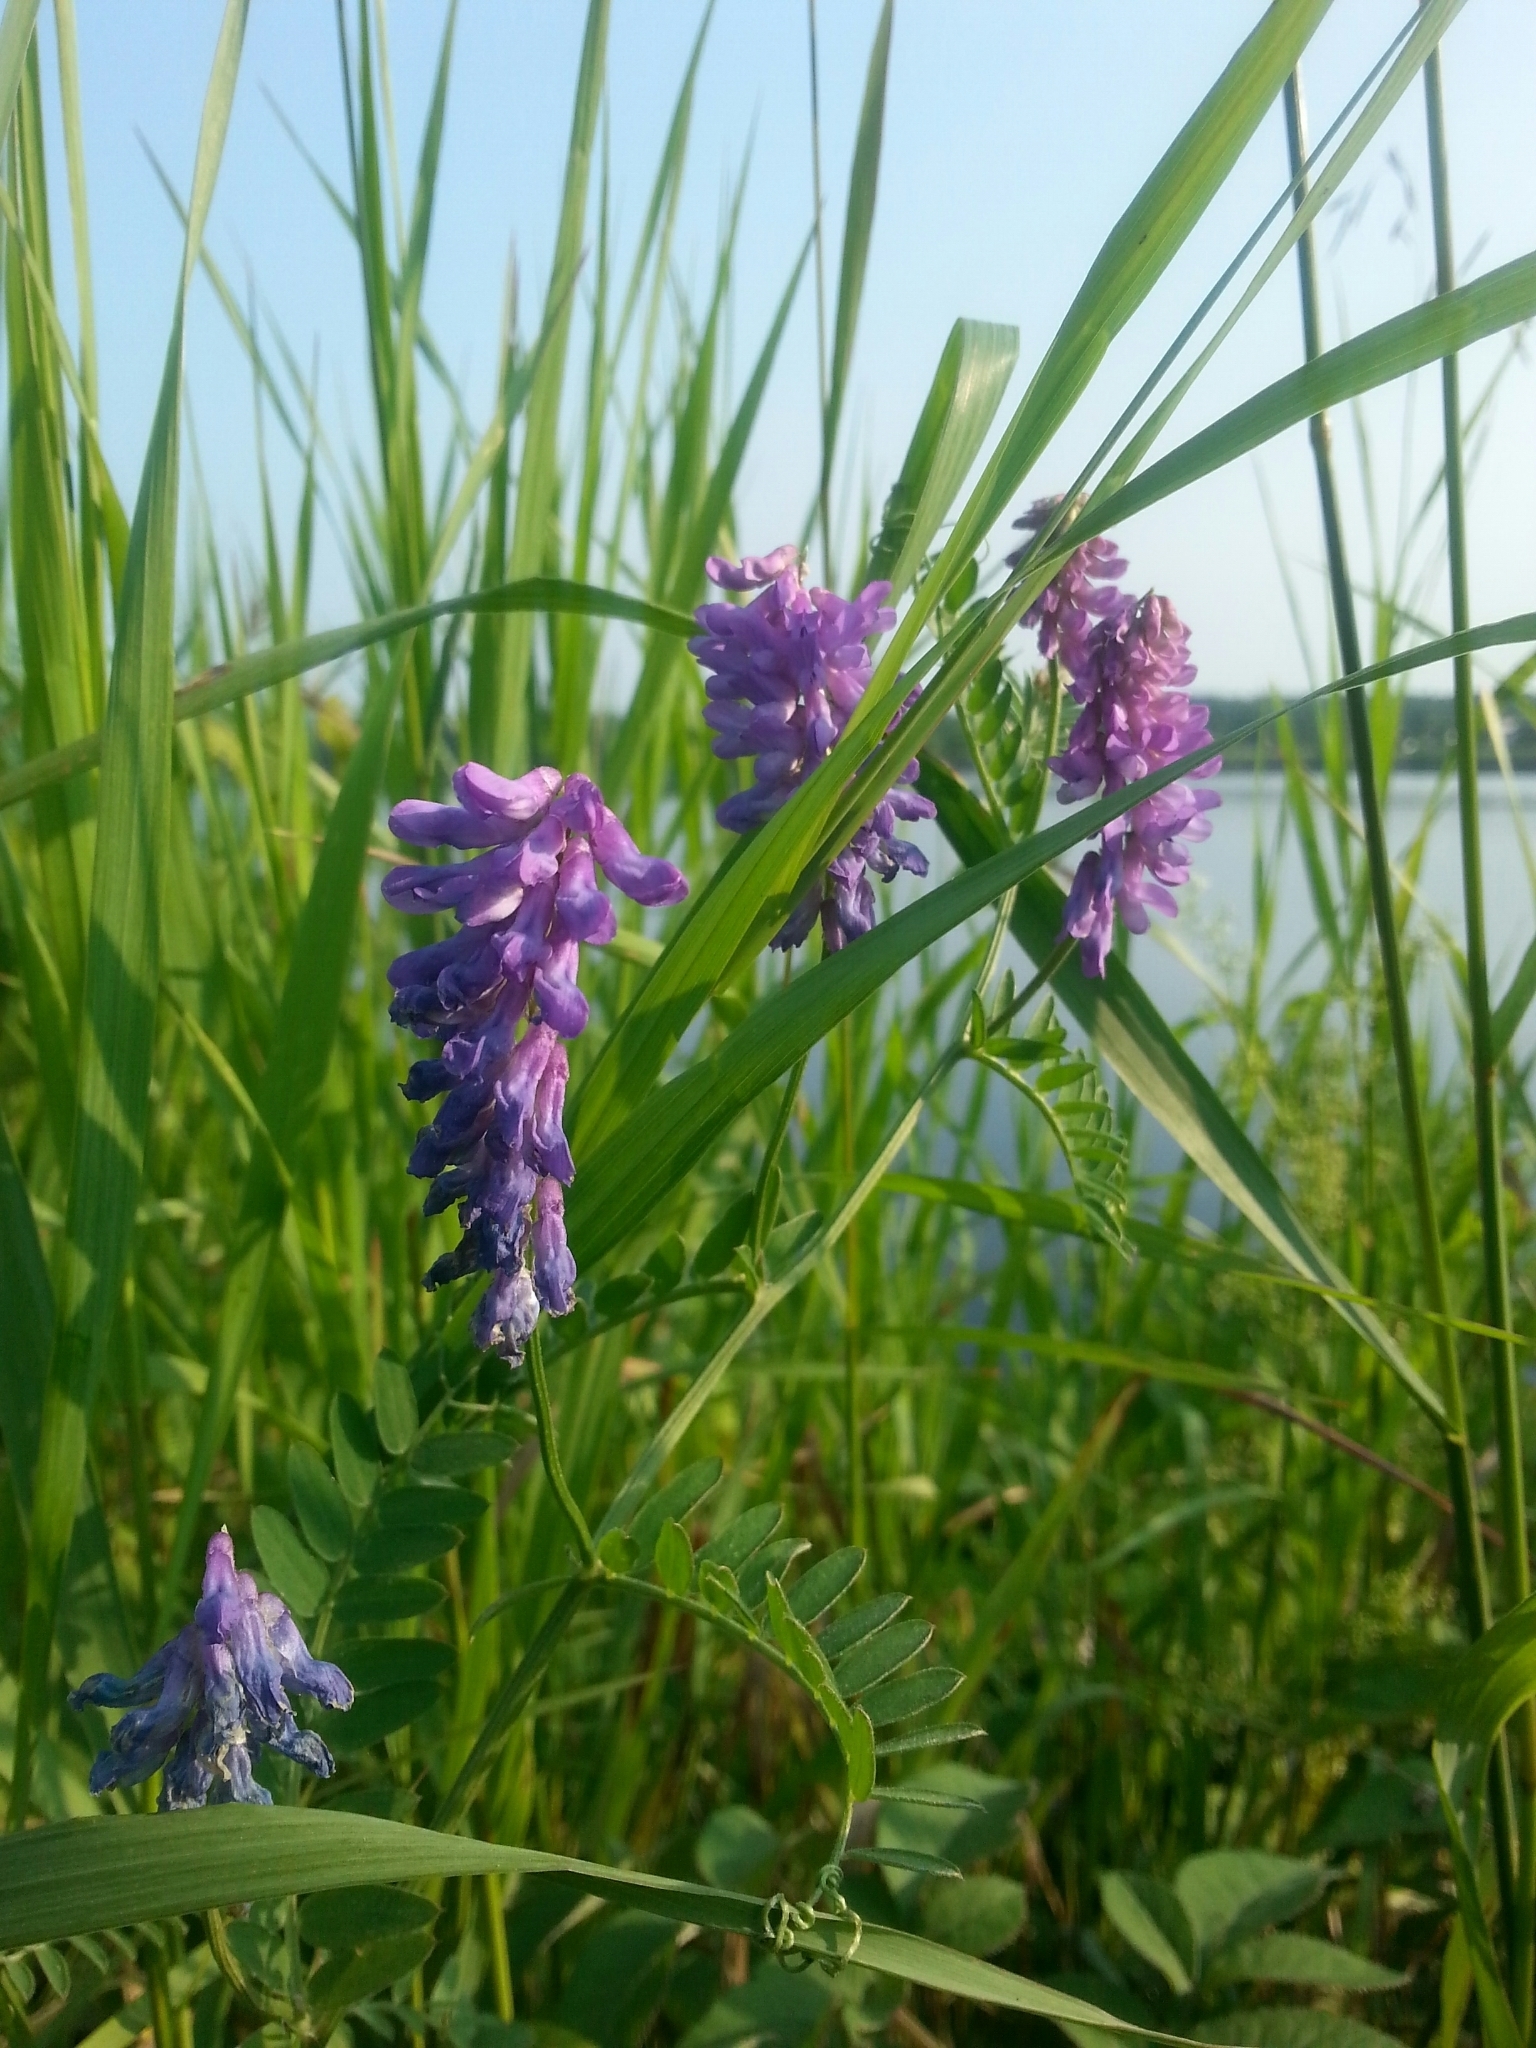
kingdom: Plantae
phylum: Tracheophyta
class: Magnoliopsida
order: Fabales
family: Fabaceae
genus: Vicia
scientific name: Vicia cracca
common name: Bird vetch
